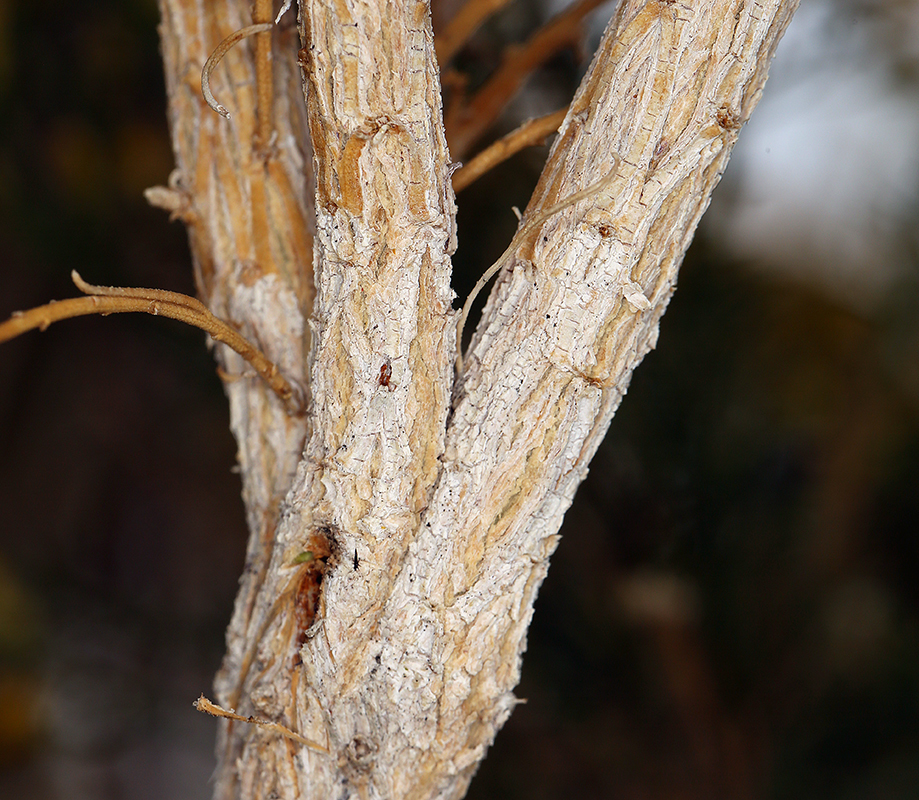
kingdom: Plantae
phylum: Tracheophyta
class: Magnoliopsida
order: Asterales
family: Asteraceae
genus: Ericameria
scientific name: Ericameria paniculata
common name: Punctate rabbitbrush
